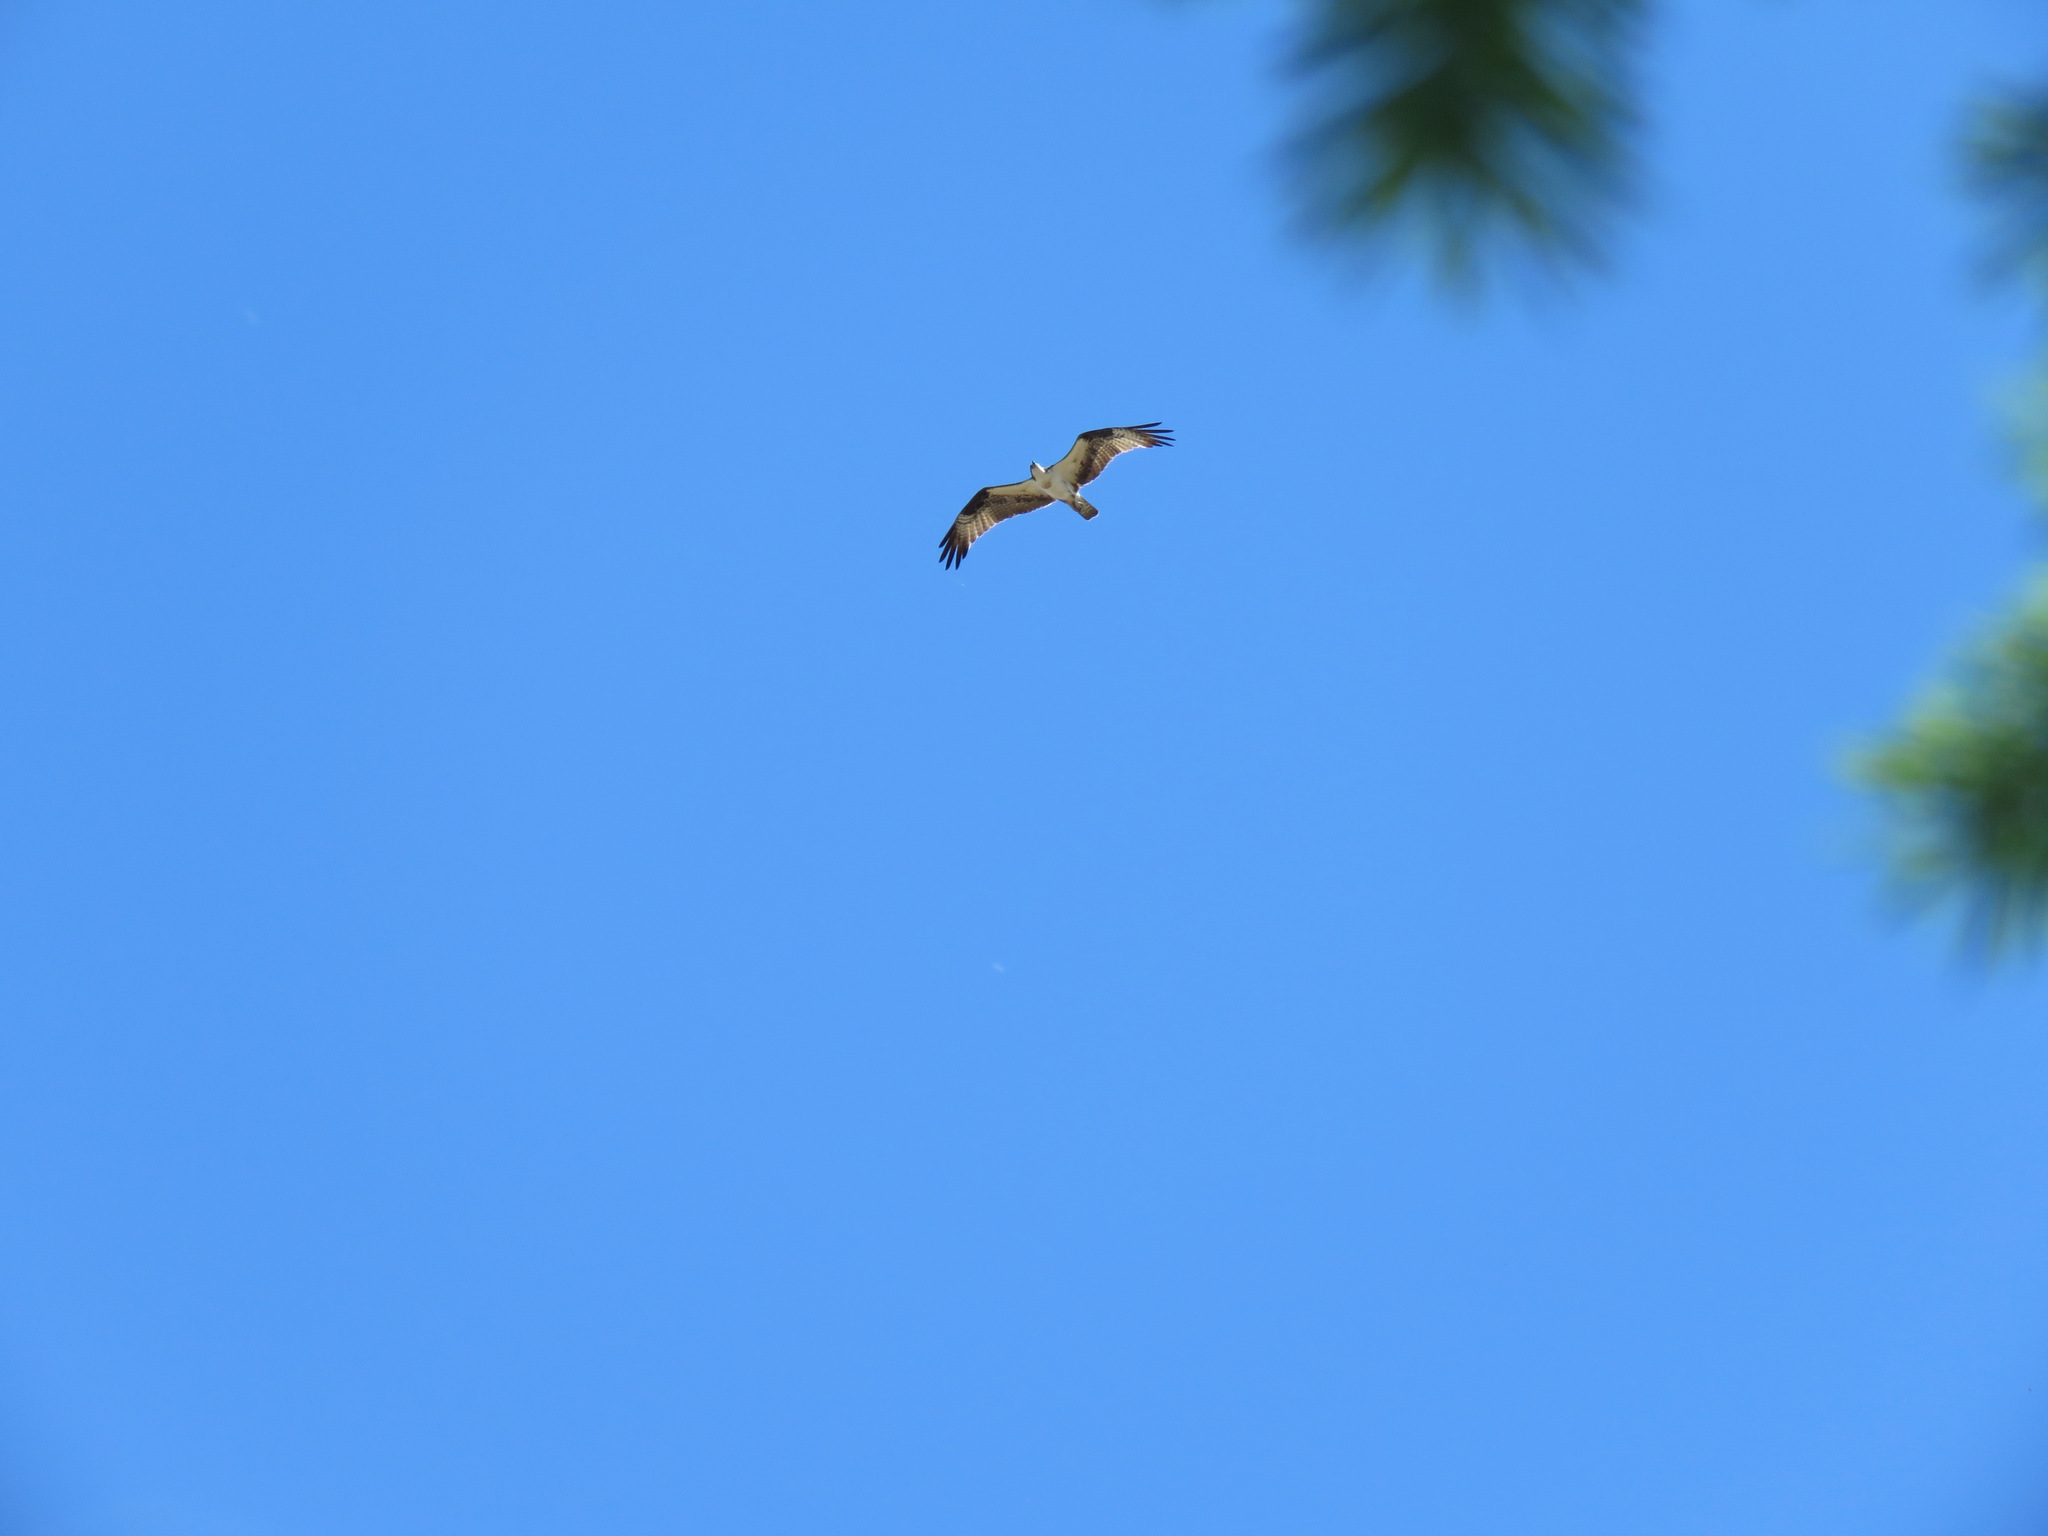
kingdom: Animalia
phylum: Chordata
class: Aves
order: Accipitriformes
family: Pandionidae
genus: Pandion
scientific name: Pandion haliaetus
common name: Osprey
